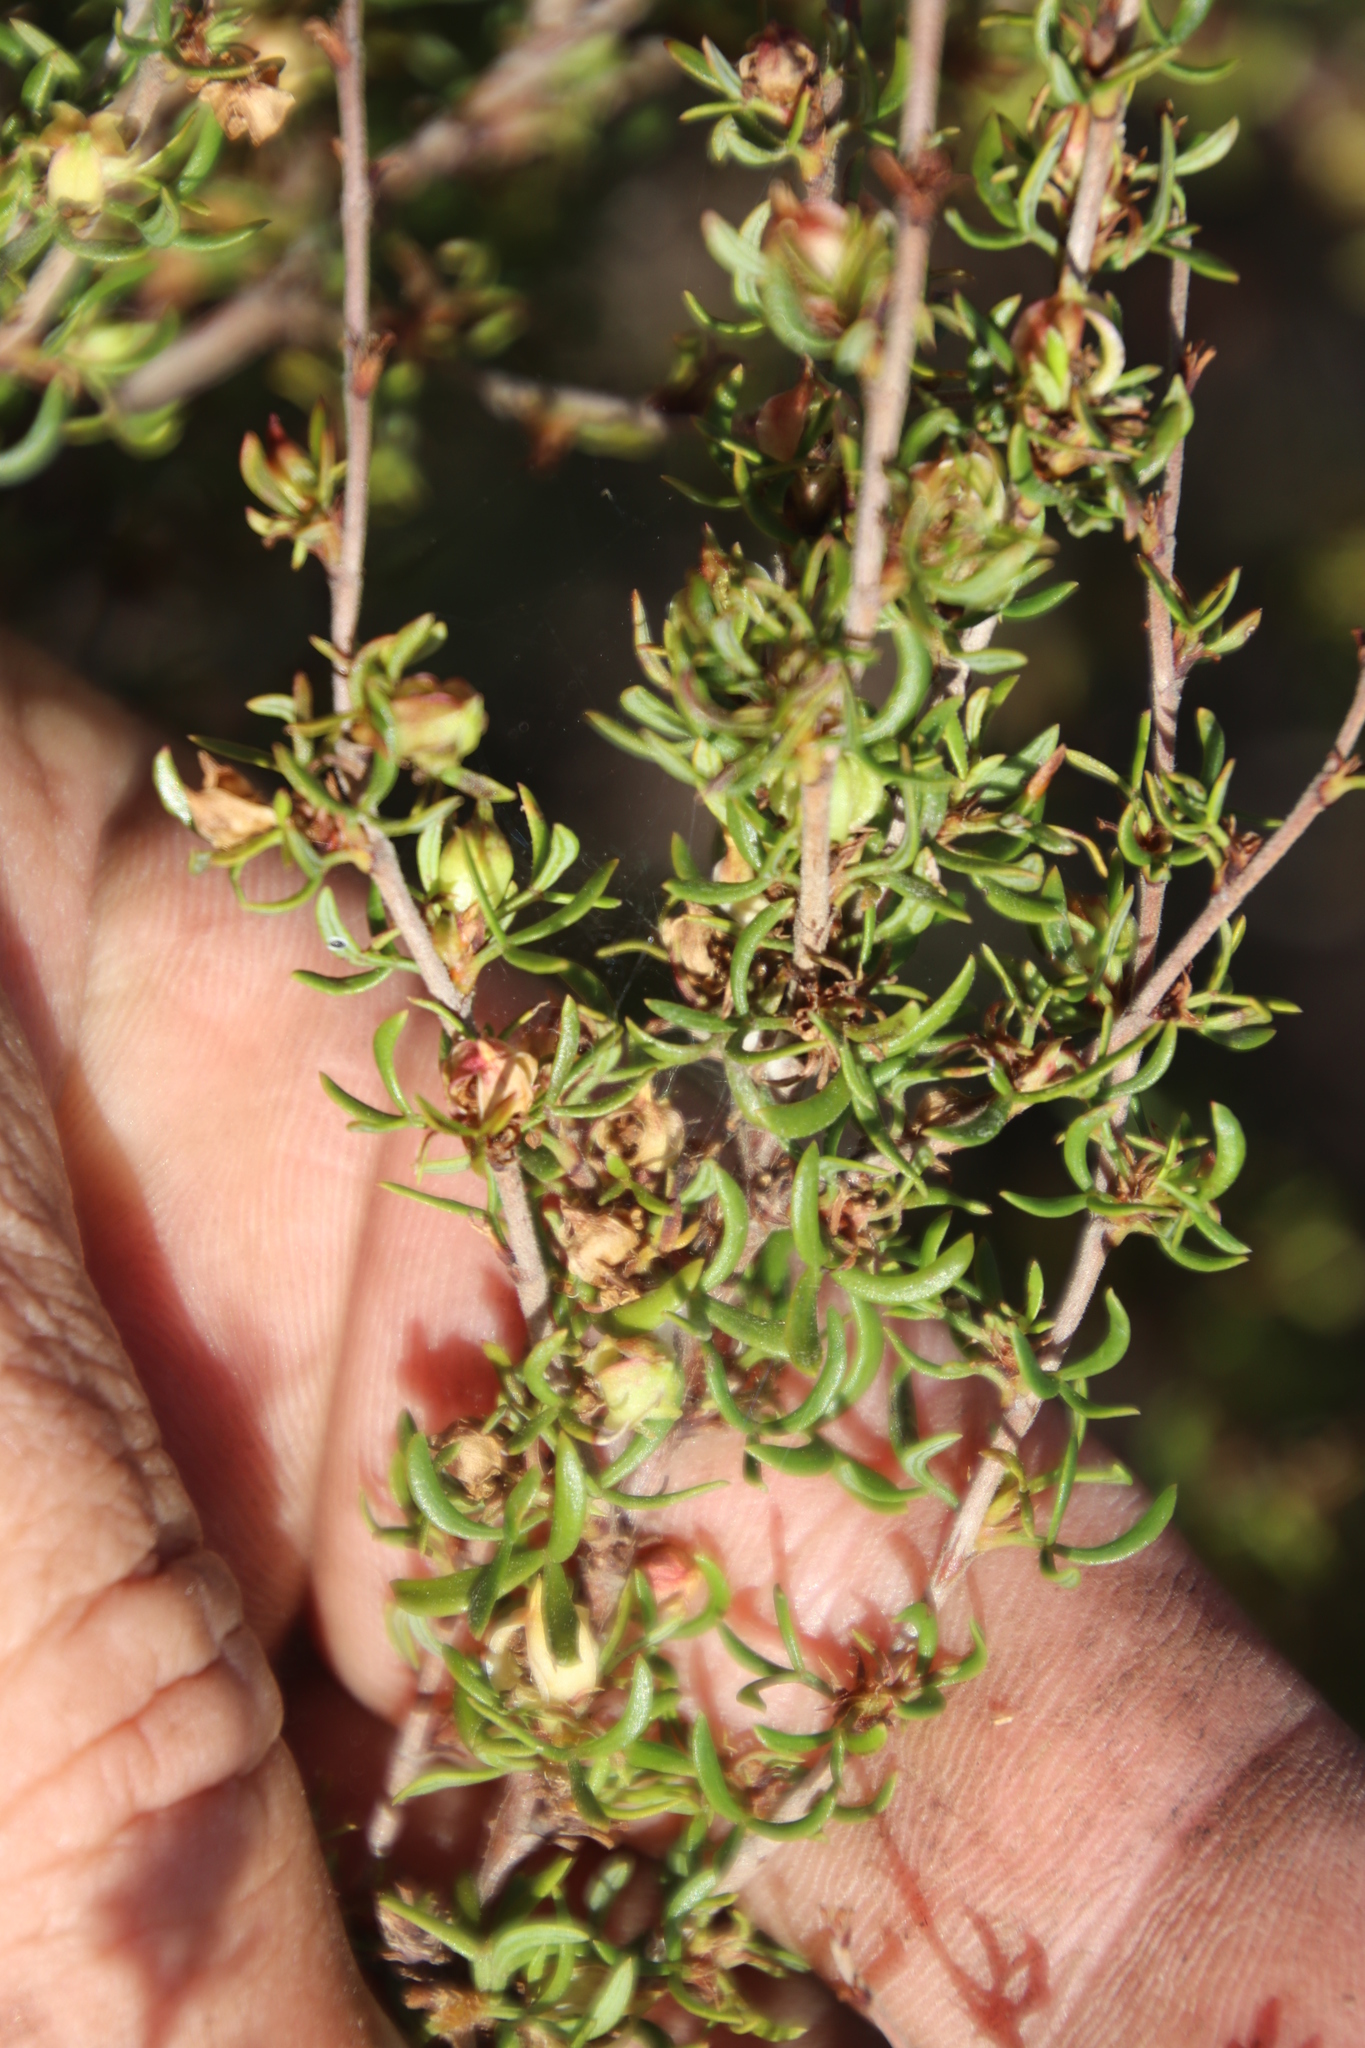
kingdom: Plantae
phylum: Tracheophyta
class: Magnoliopsida
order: Rosales
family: Rosaceae
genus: Cliffortia
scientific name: Cliffortia falcata
